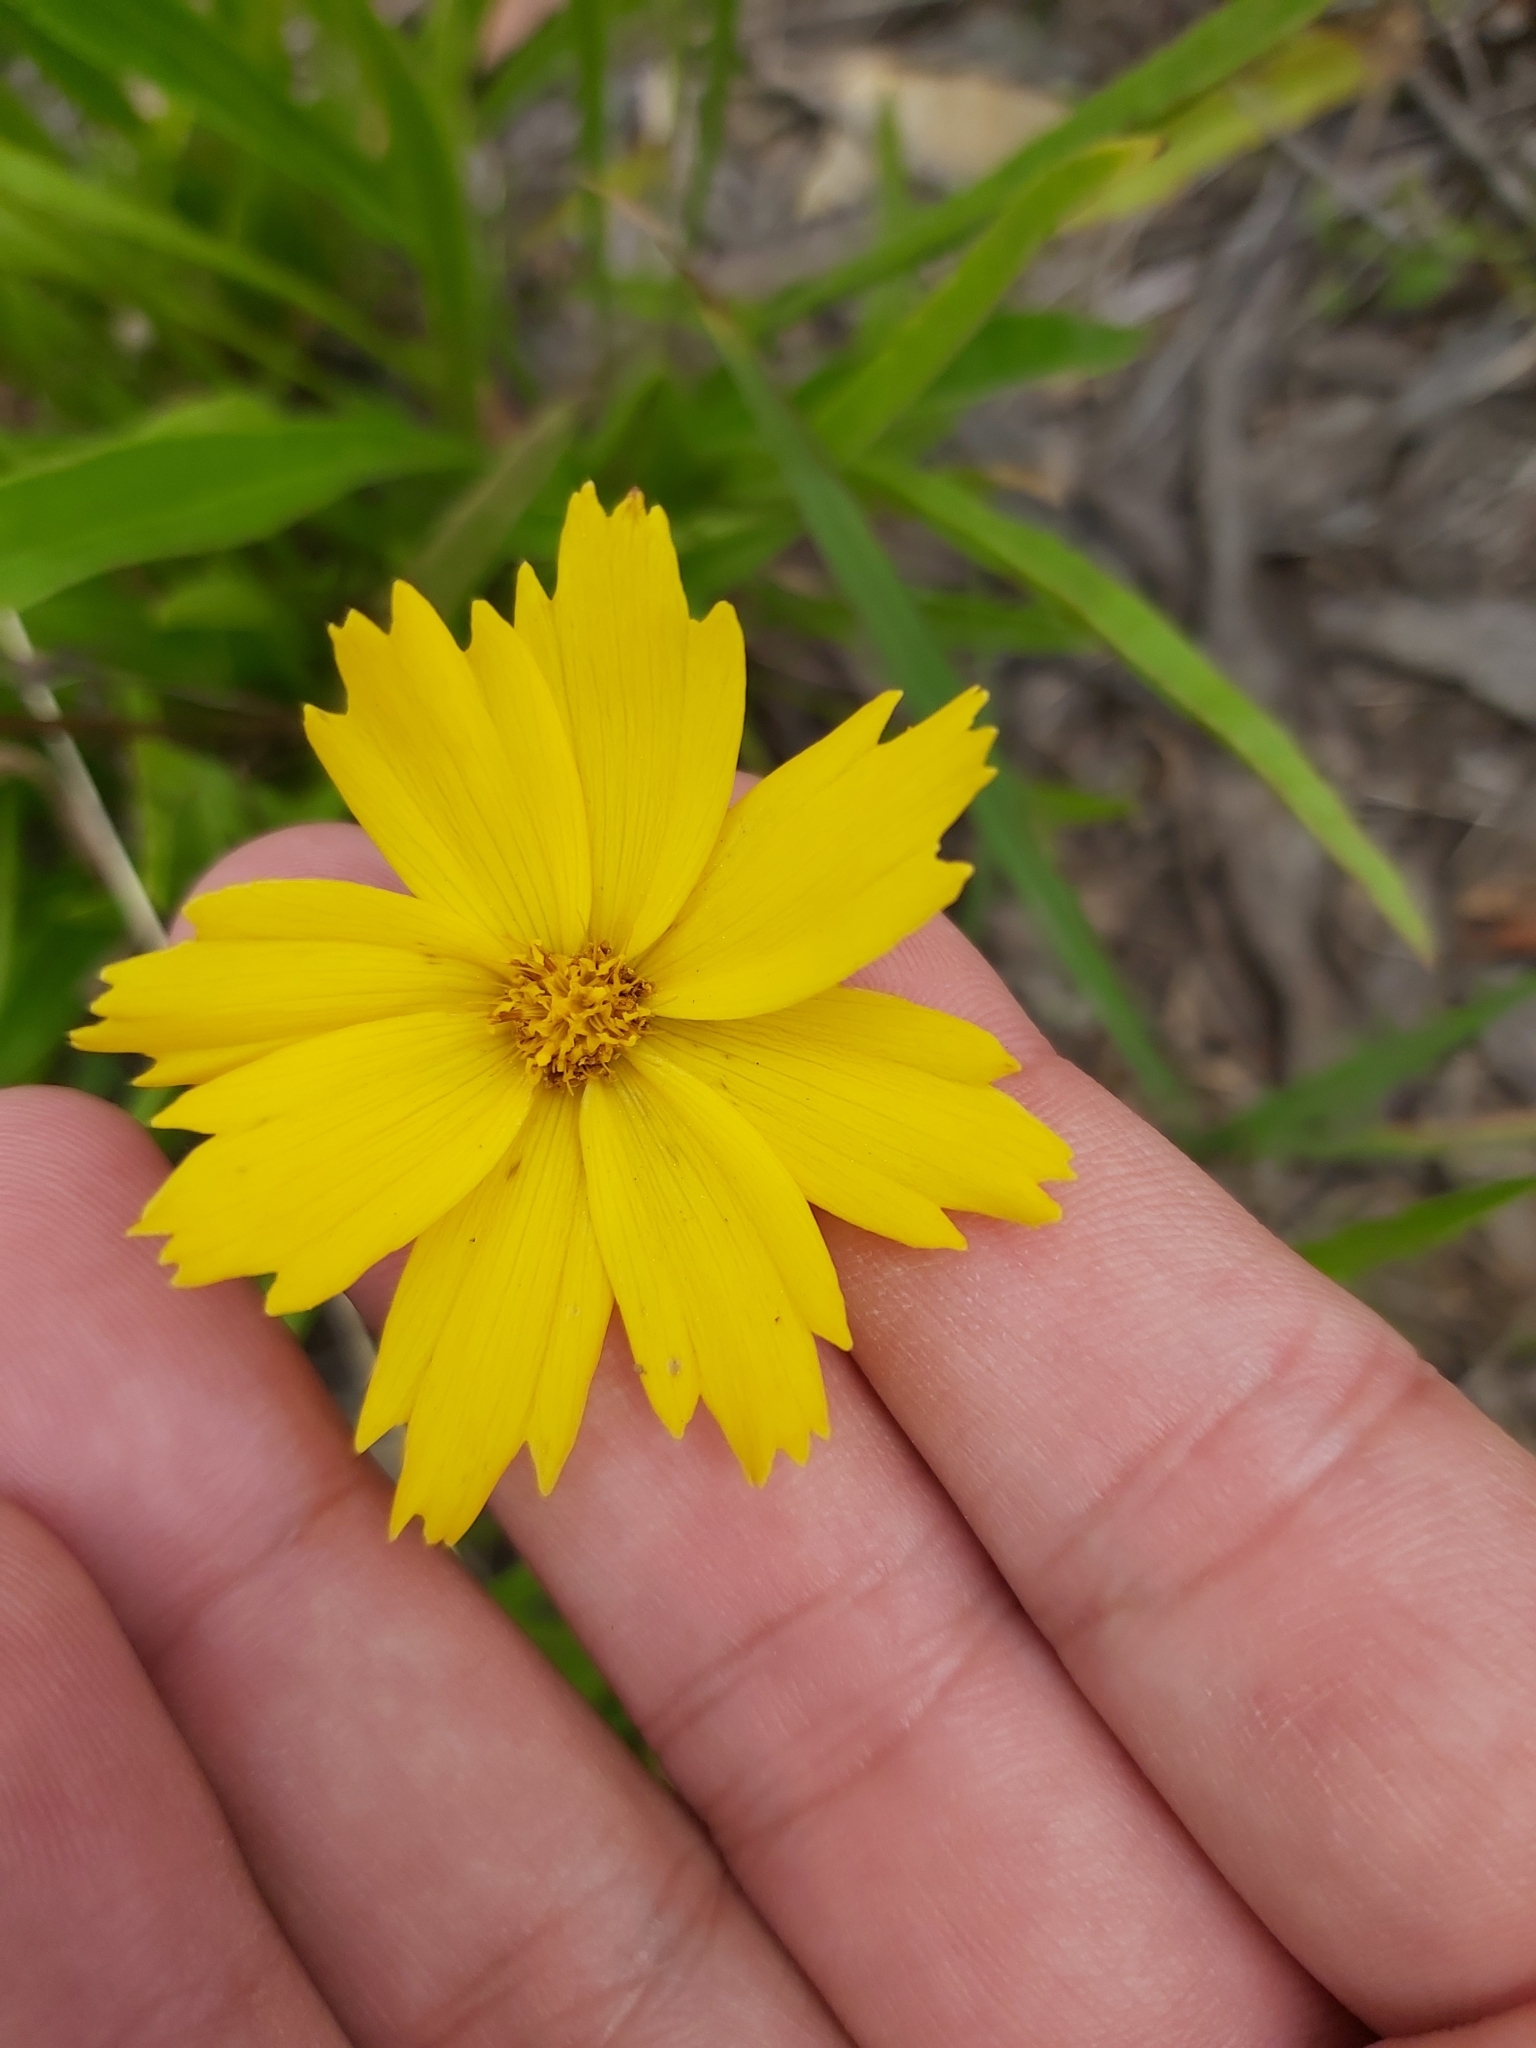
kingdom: Plantae
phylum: Tracheophyta
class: Magnoliopsida
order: Asterales
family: Asteraceae
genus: Coreopsis
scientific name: Coreopsis lanceolata
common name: Garden coreopsis
